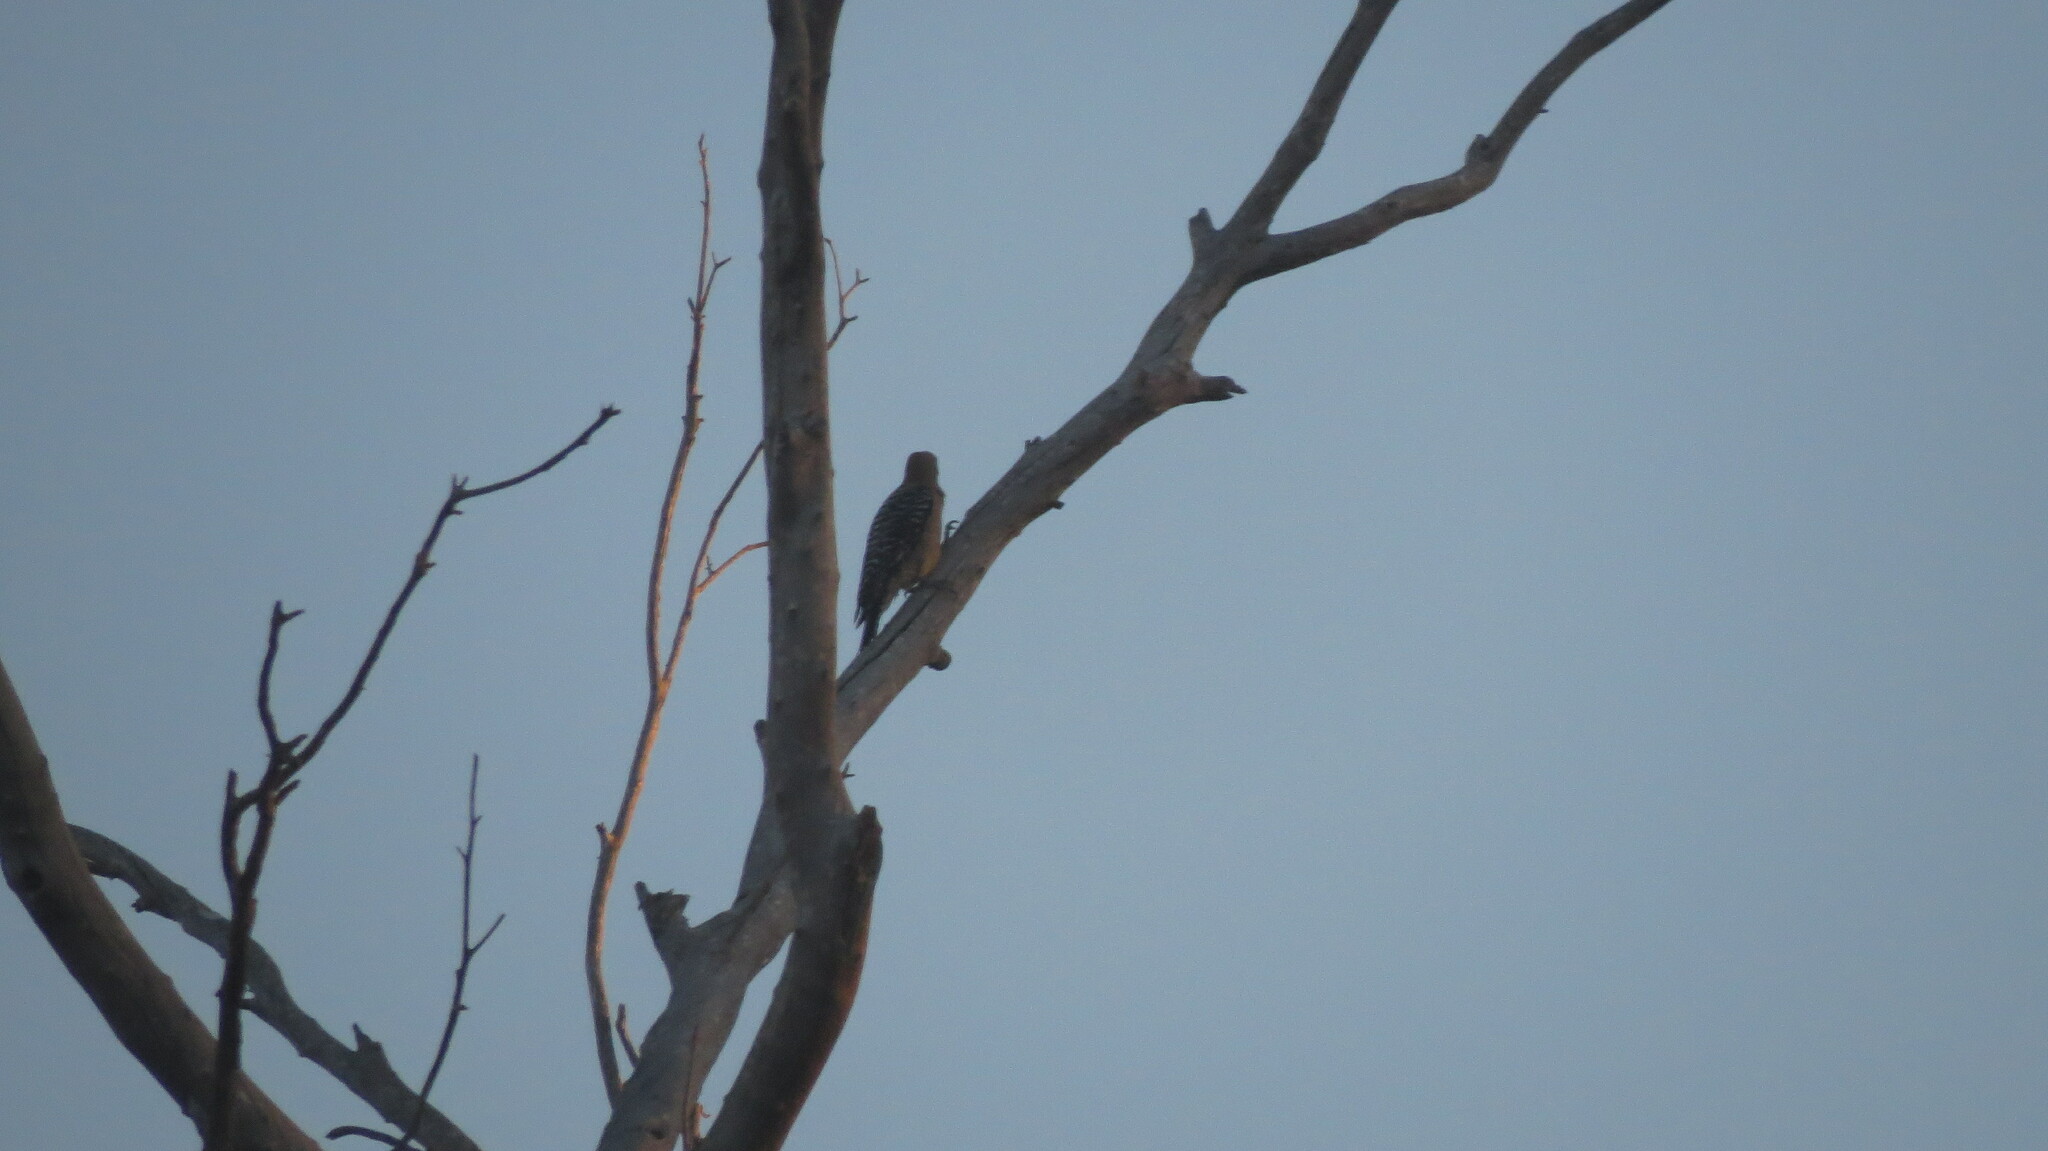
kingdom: Animalia
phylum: Chordata
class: Aves
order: Piciformes
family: Picidae
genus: Melanerpes
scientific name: Melanerpes uropygialis
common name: Gila woodpecker
